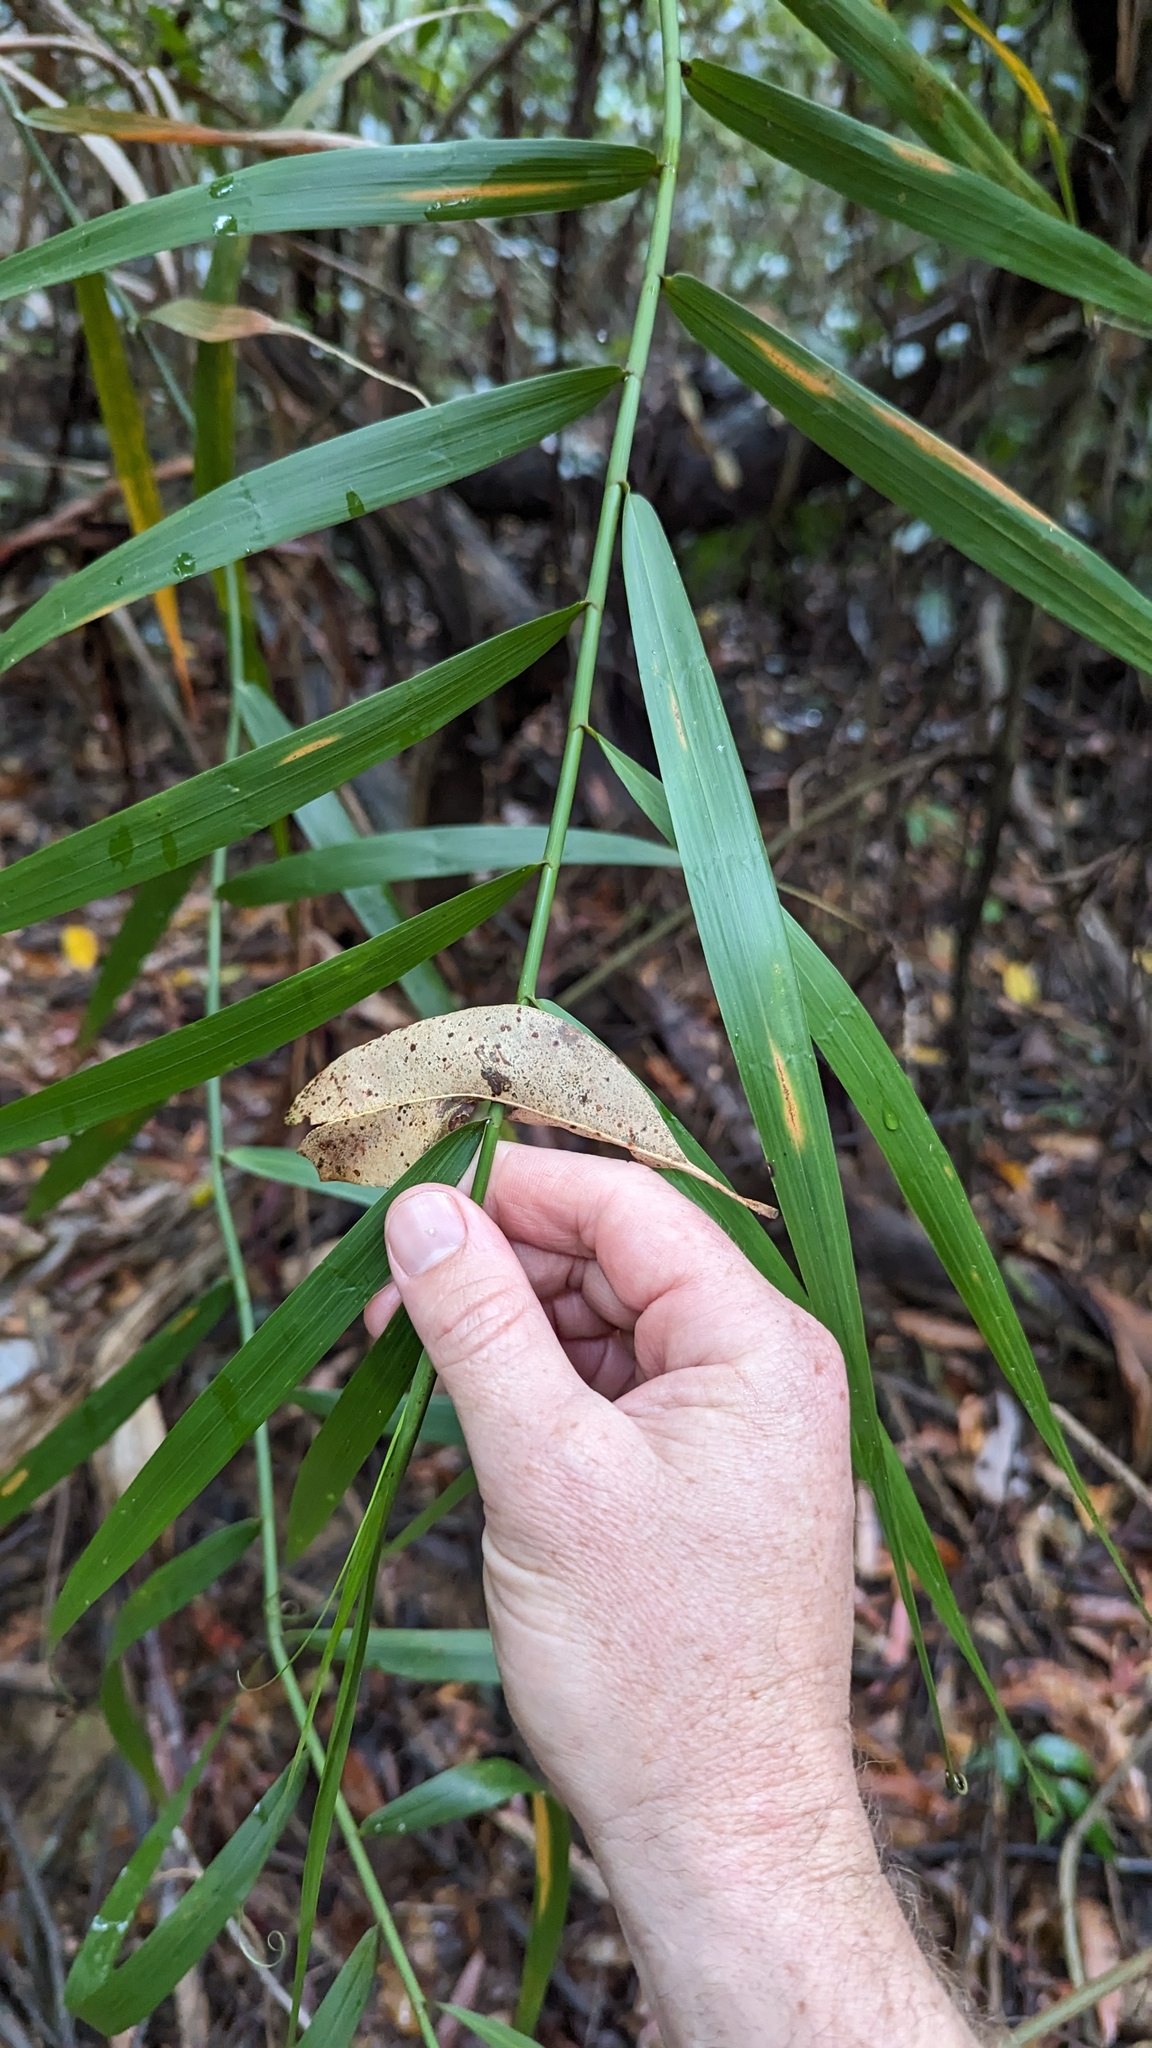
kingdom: Plantae
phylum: Tracheophyta
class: Liliopsida
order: Poales
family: Flagellariaceae
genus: Flagellaria
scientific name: Flagellaria indica
